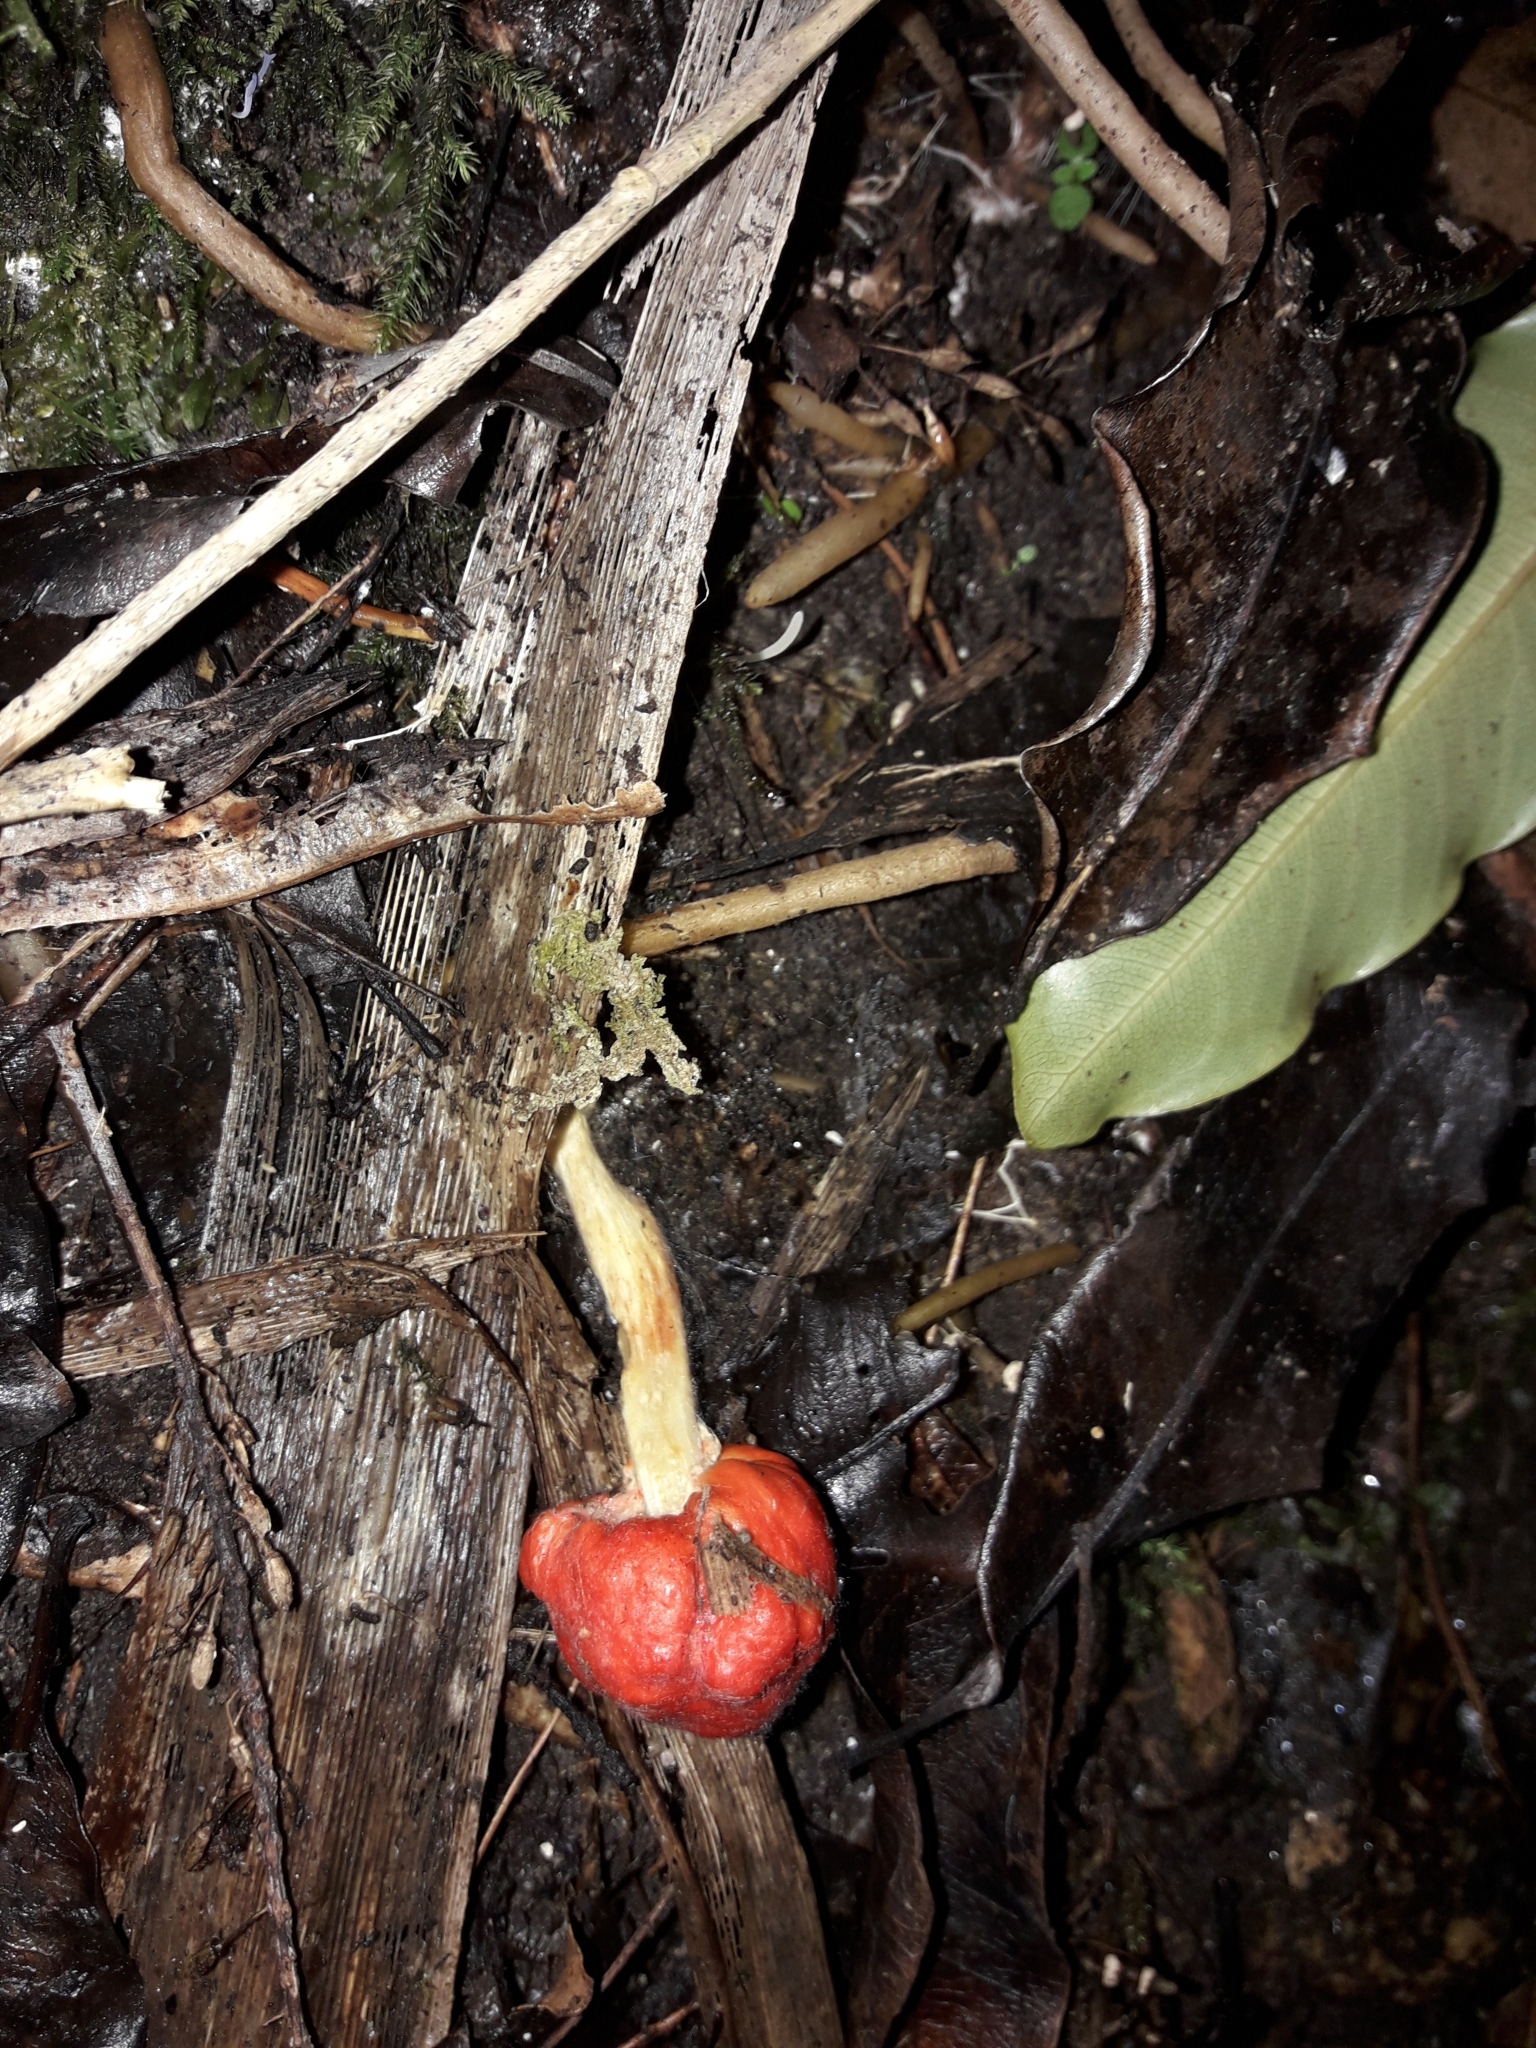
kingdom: Fungi
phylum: Basidiomycota
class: Agaricomycetes
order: Agaricales
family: Strophariaceae
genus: Leratiomyces
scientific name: Leratiomyces erythrocephalus
